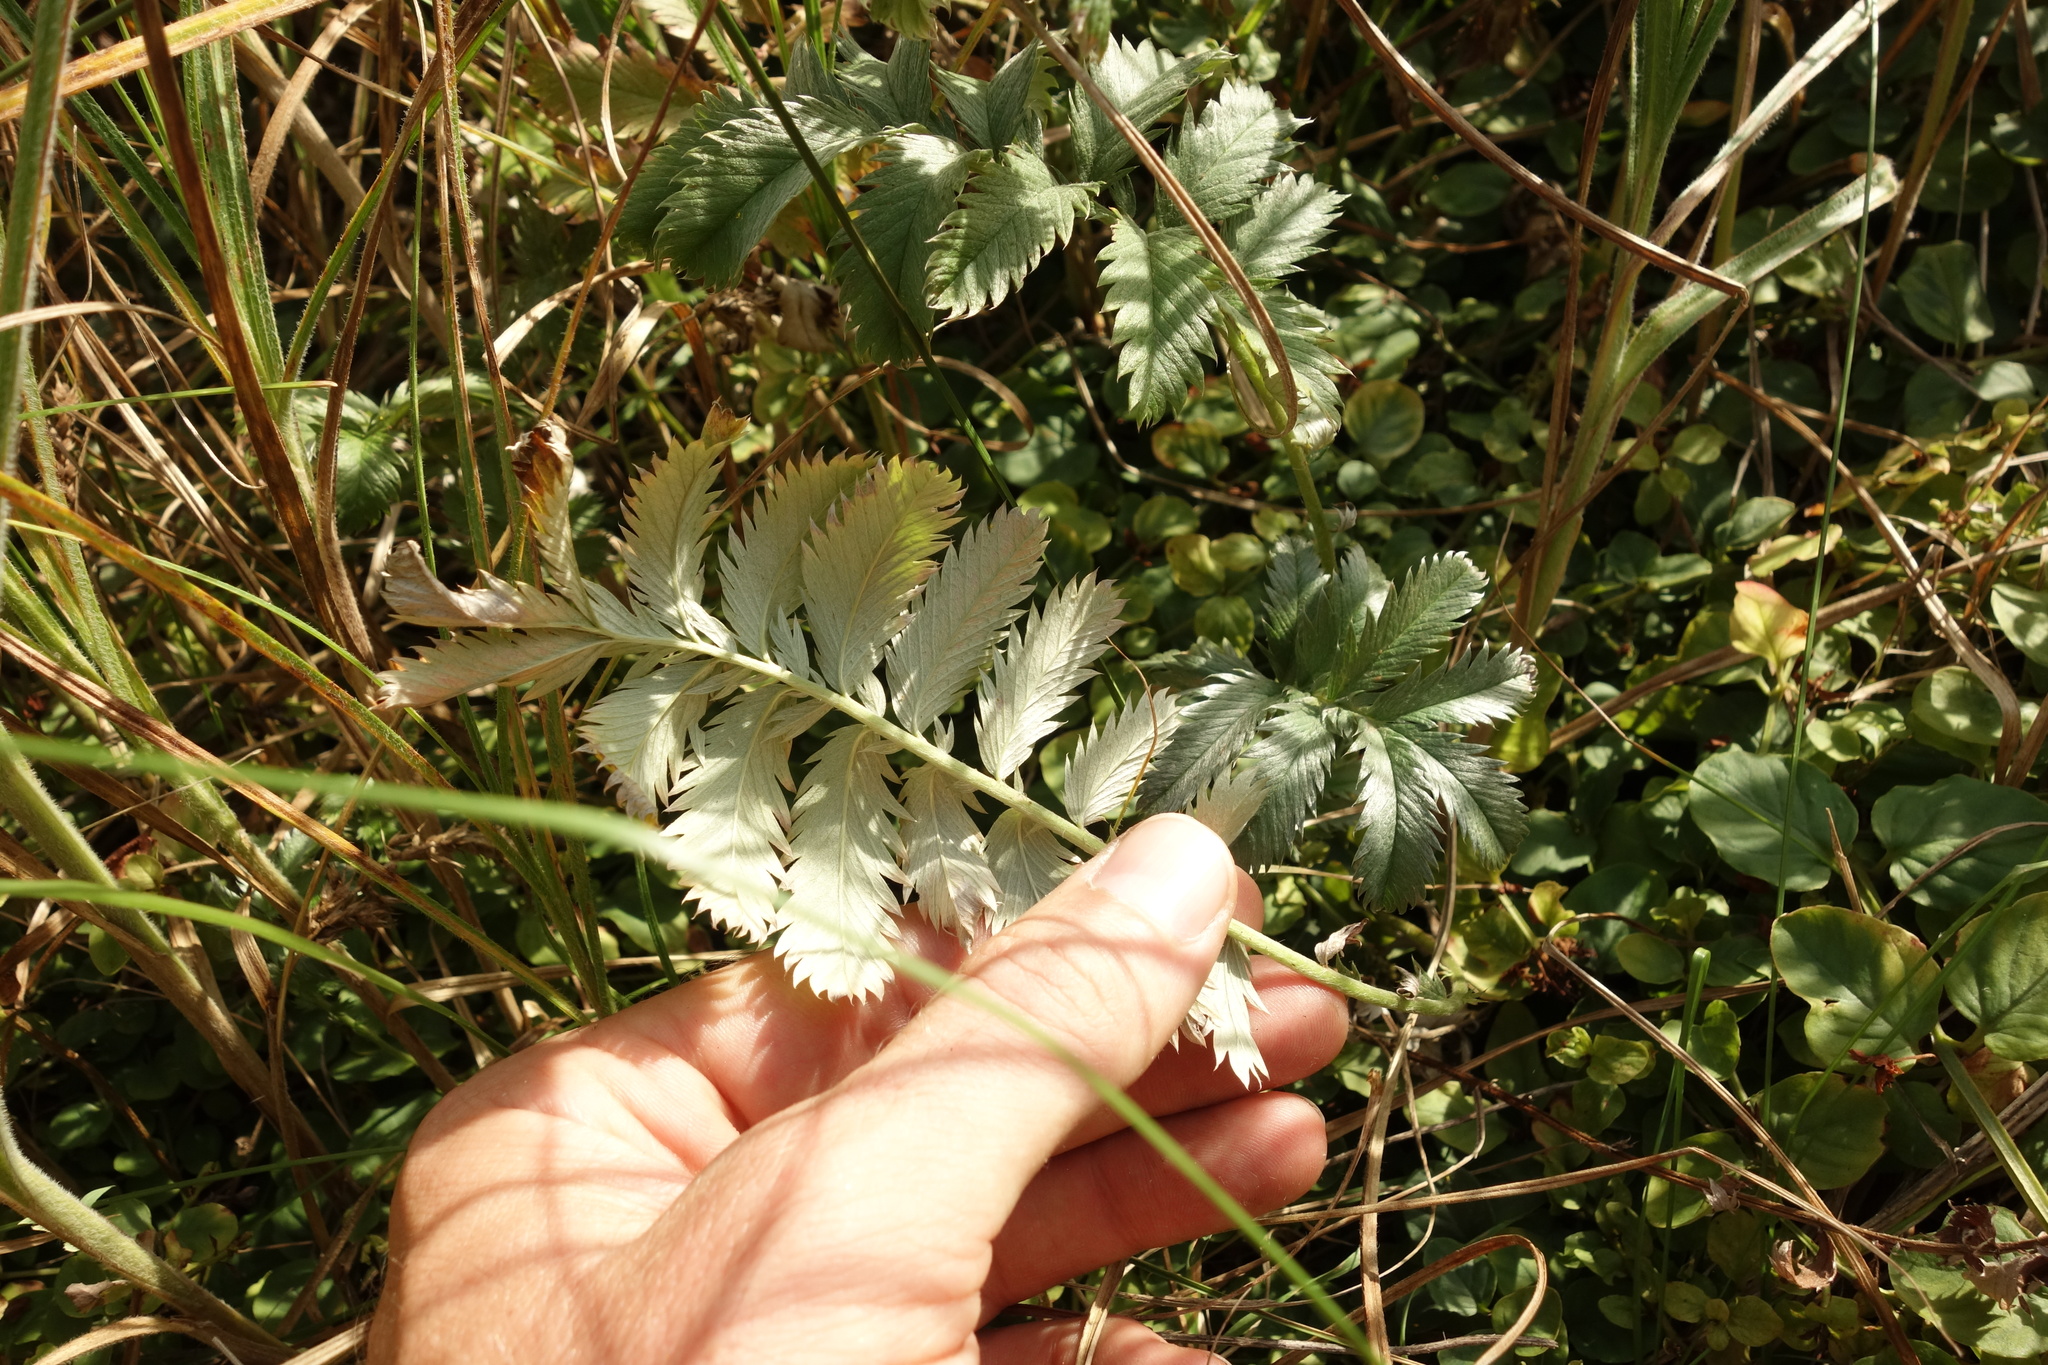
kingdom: Plantae
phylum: Tracheophyta
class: Magnoliopsida
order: Rosales
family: Rosaceae
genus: Argentina
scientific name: Argentina anserina
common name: Common silverweed
